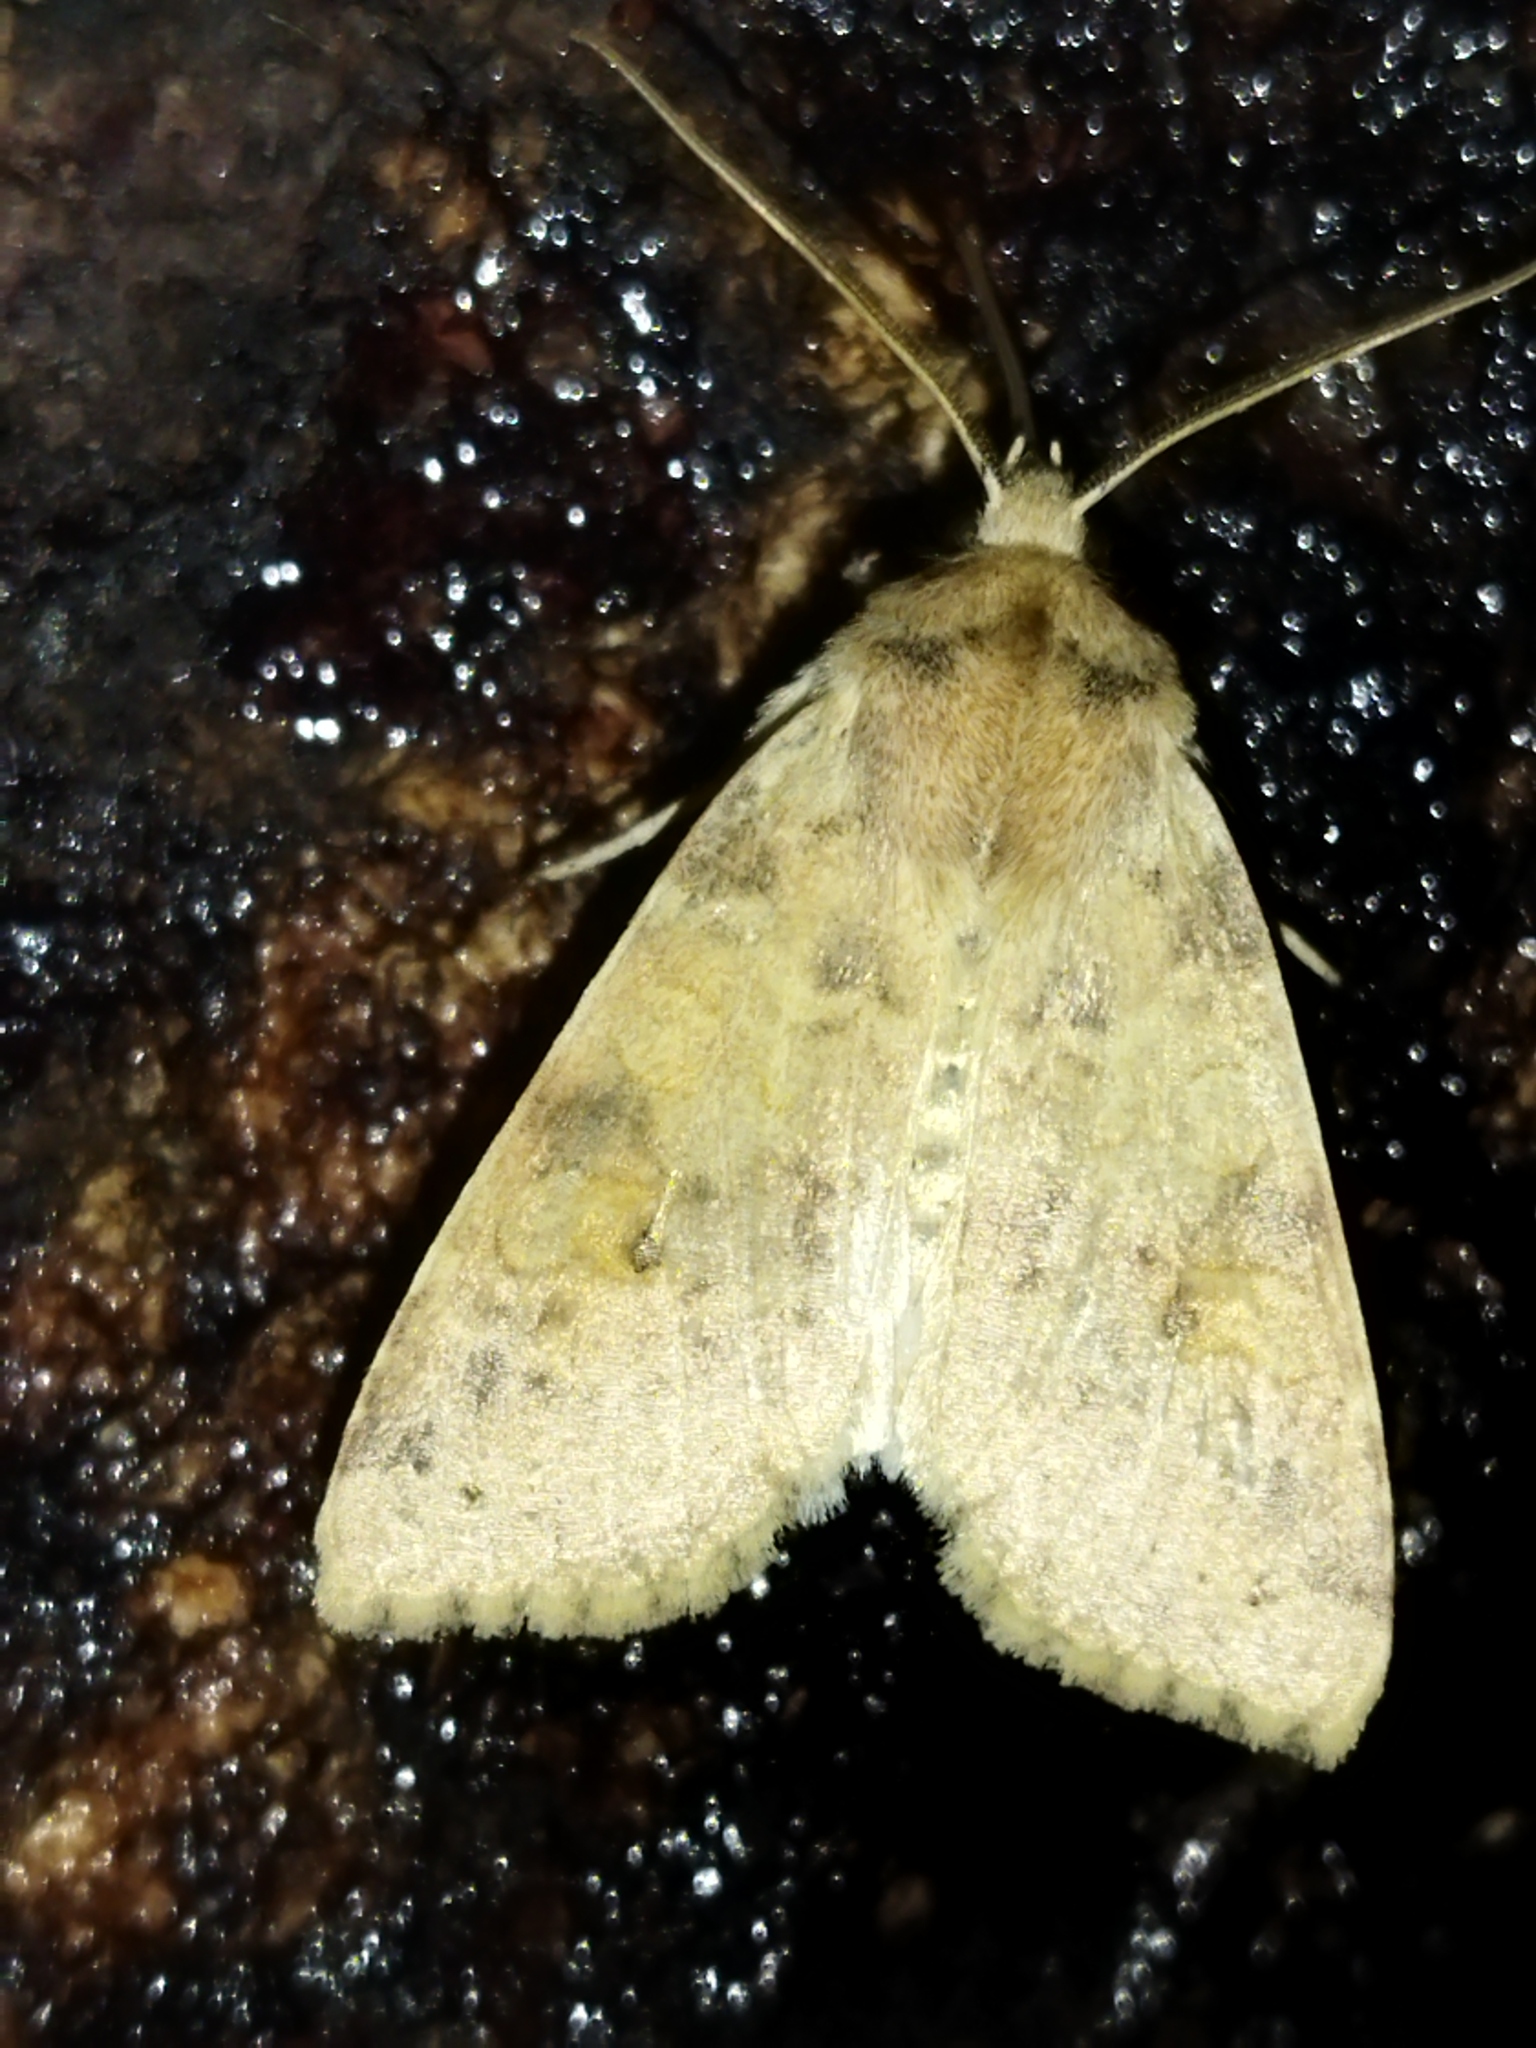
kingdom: Animalia
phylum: Arthropoda
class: Insecta
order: Lepidoptera
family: Noctuidae
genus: Xanthia
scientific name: Xanthia ocellaris
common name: Pale-lemon sallow
